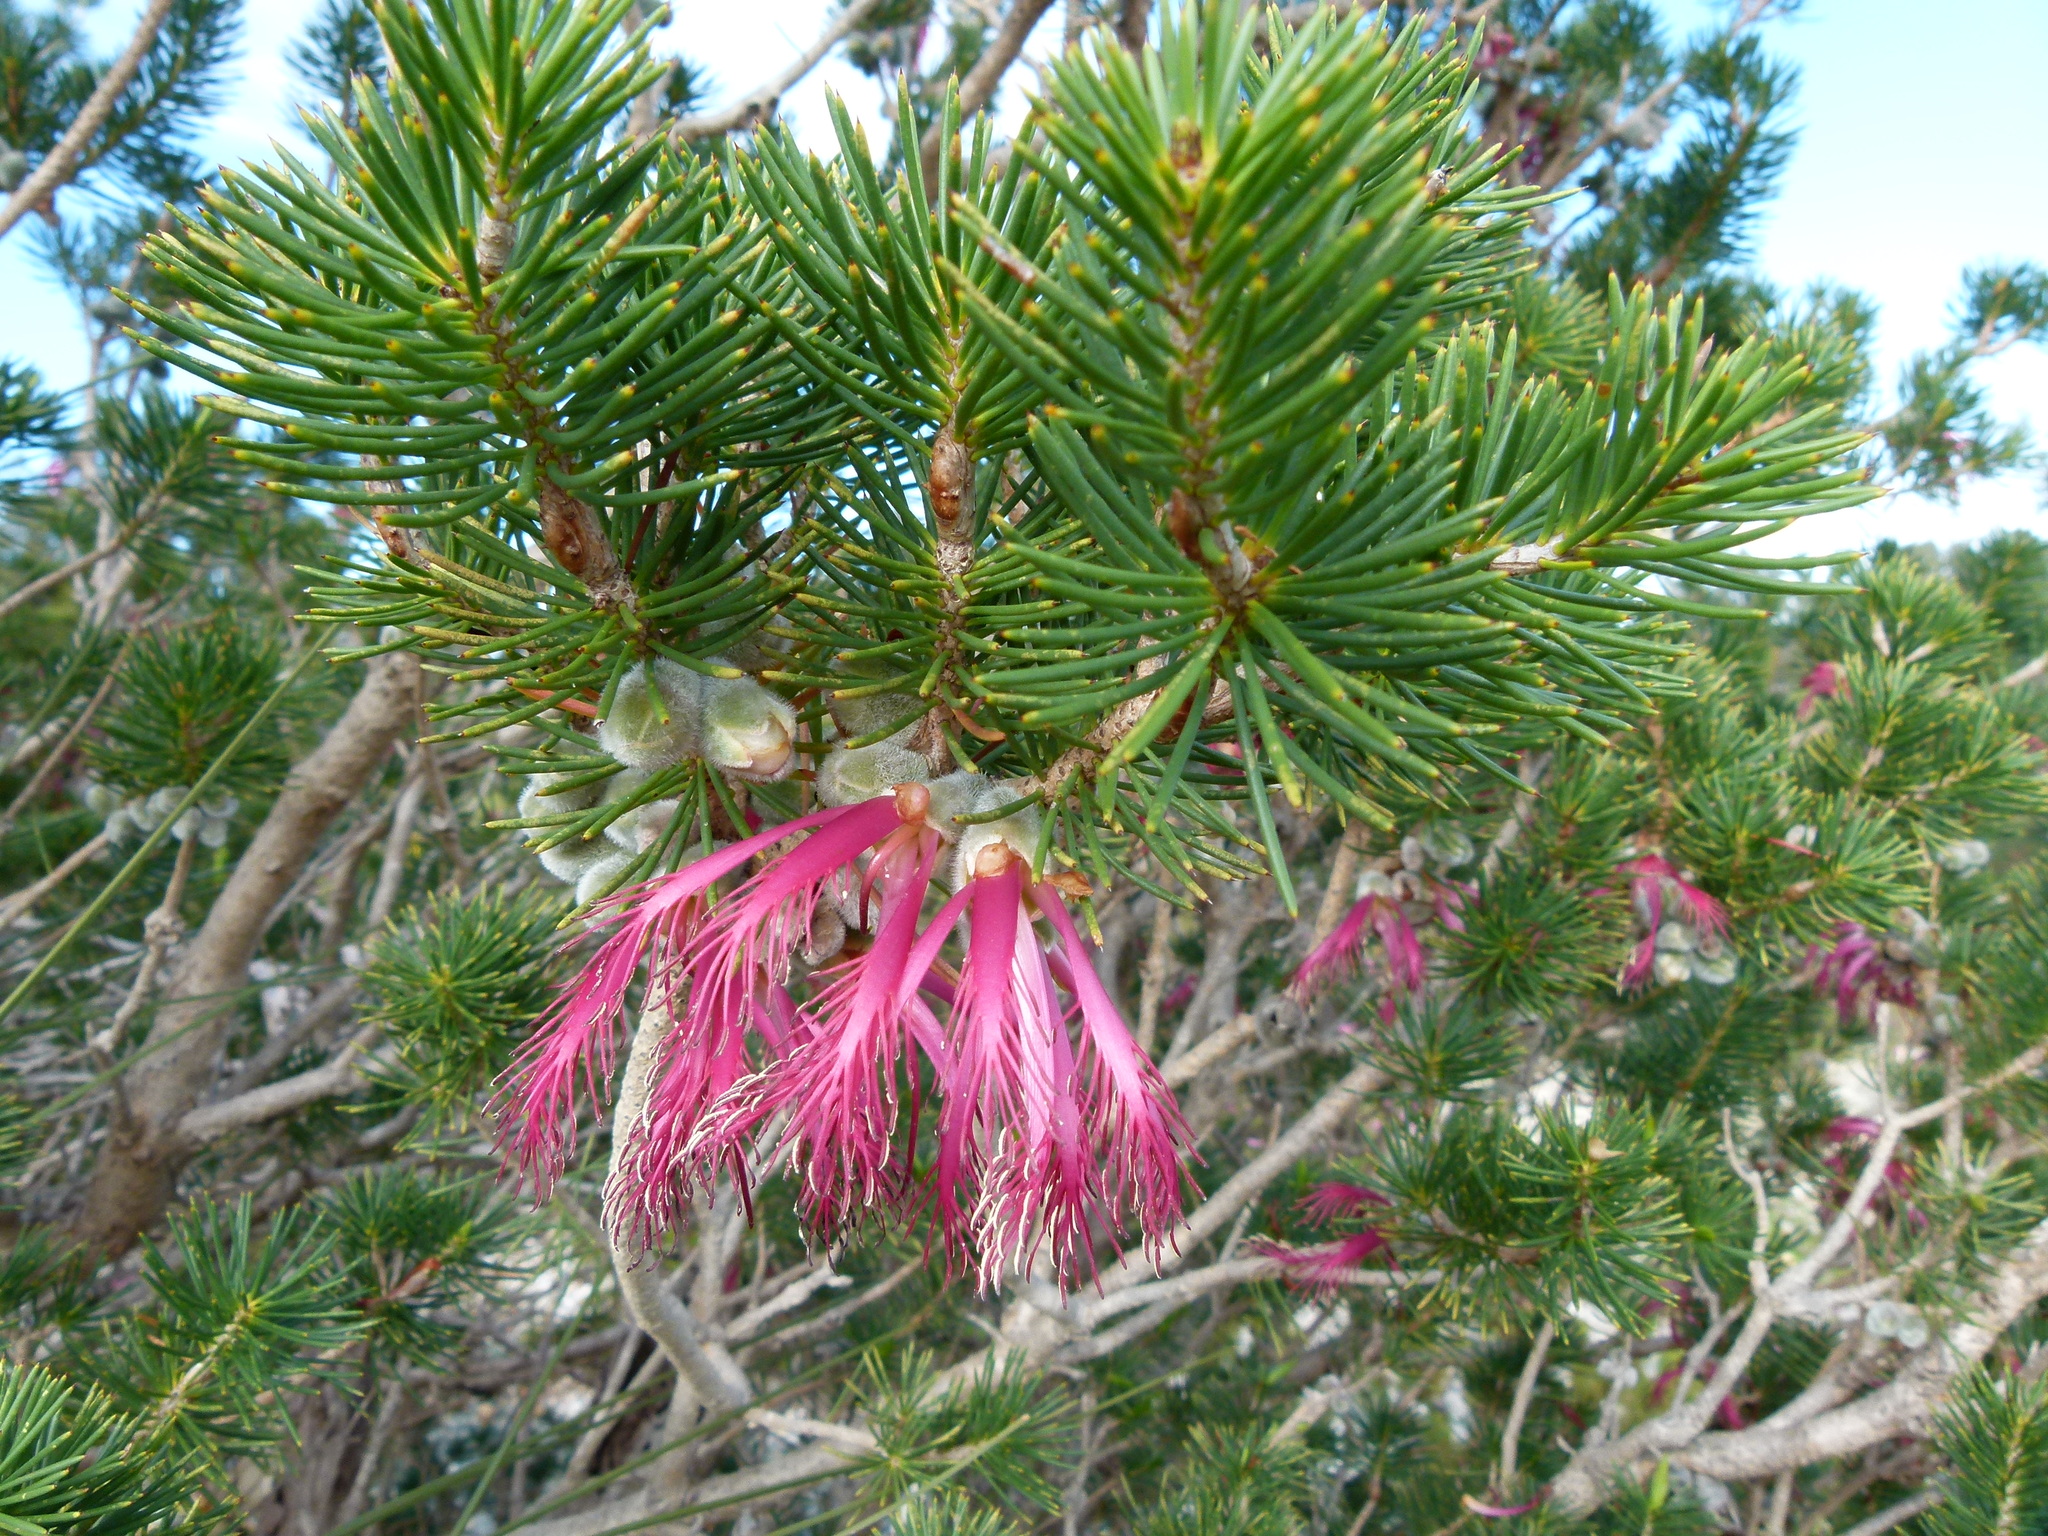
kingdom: Plantae
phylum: Tracheophyta
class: Magnoliopsida
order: Myrtales
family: Myrtaceae
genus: Melaleuca
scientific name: Melaleuca quadrifida
